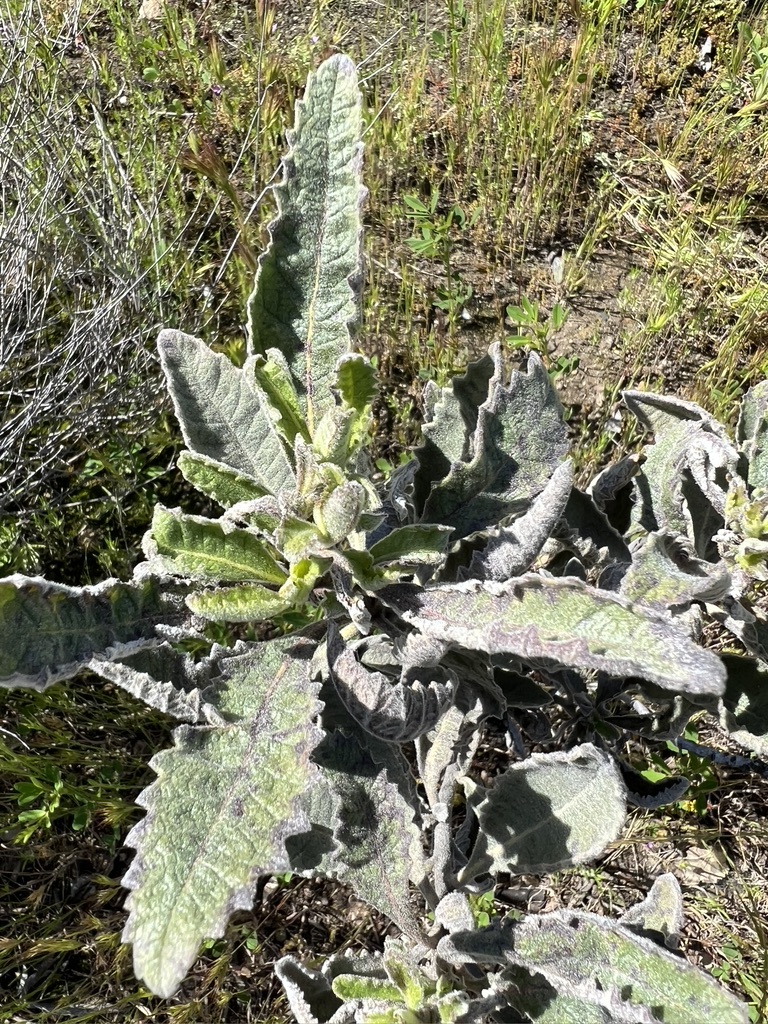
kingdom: Plantae
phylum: Tracheophyta
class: Magnoliopsida
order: Boraginales
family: Namaceae
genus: Eriodictyon
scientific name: Eriodictyon crassifolium
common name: Thick-leaf yerba-santa
